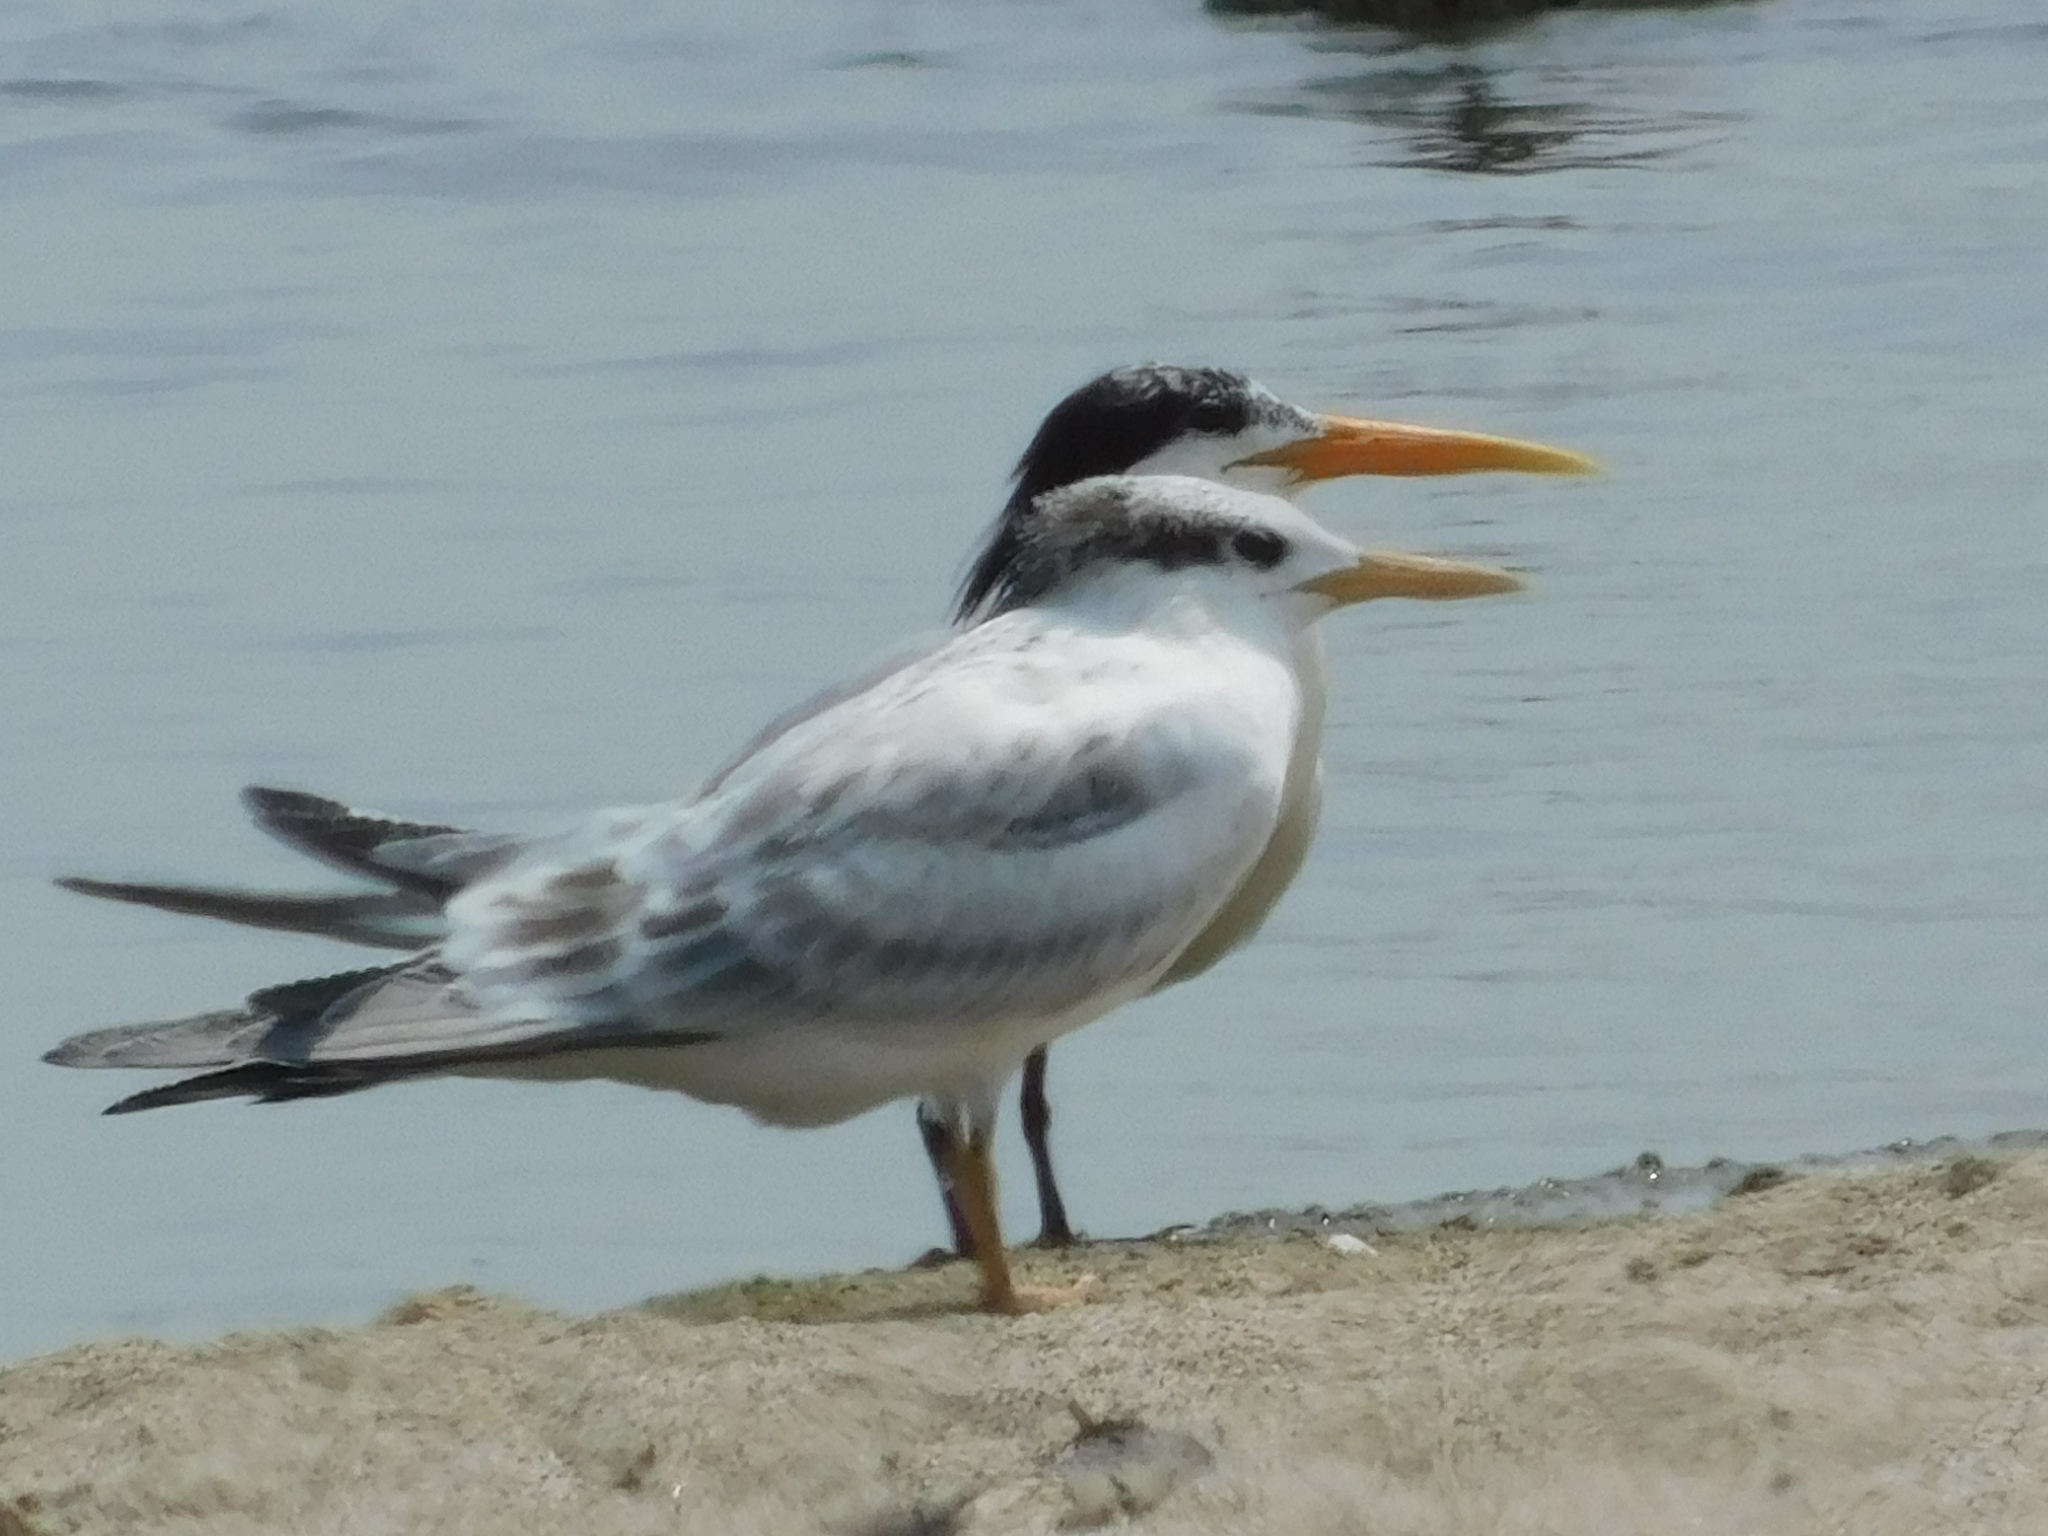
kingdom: Animalia
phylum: Chordata
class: Aves
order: Charadriiformes
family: Laridae
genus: Thalasseus
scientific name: Thalasseus elegans
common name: Elegant tern
